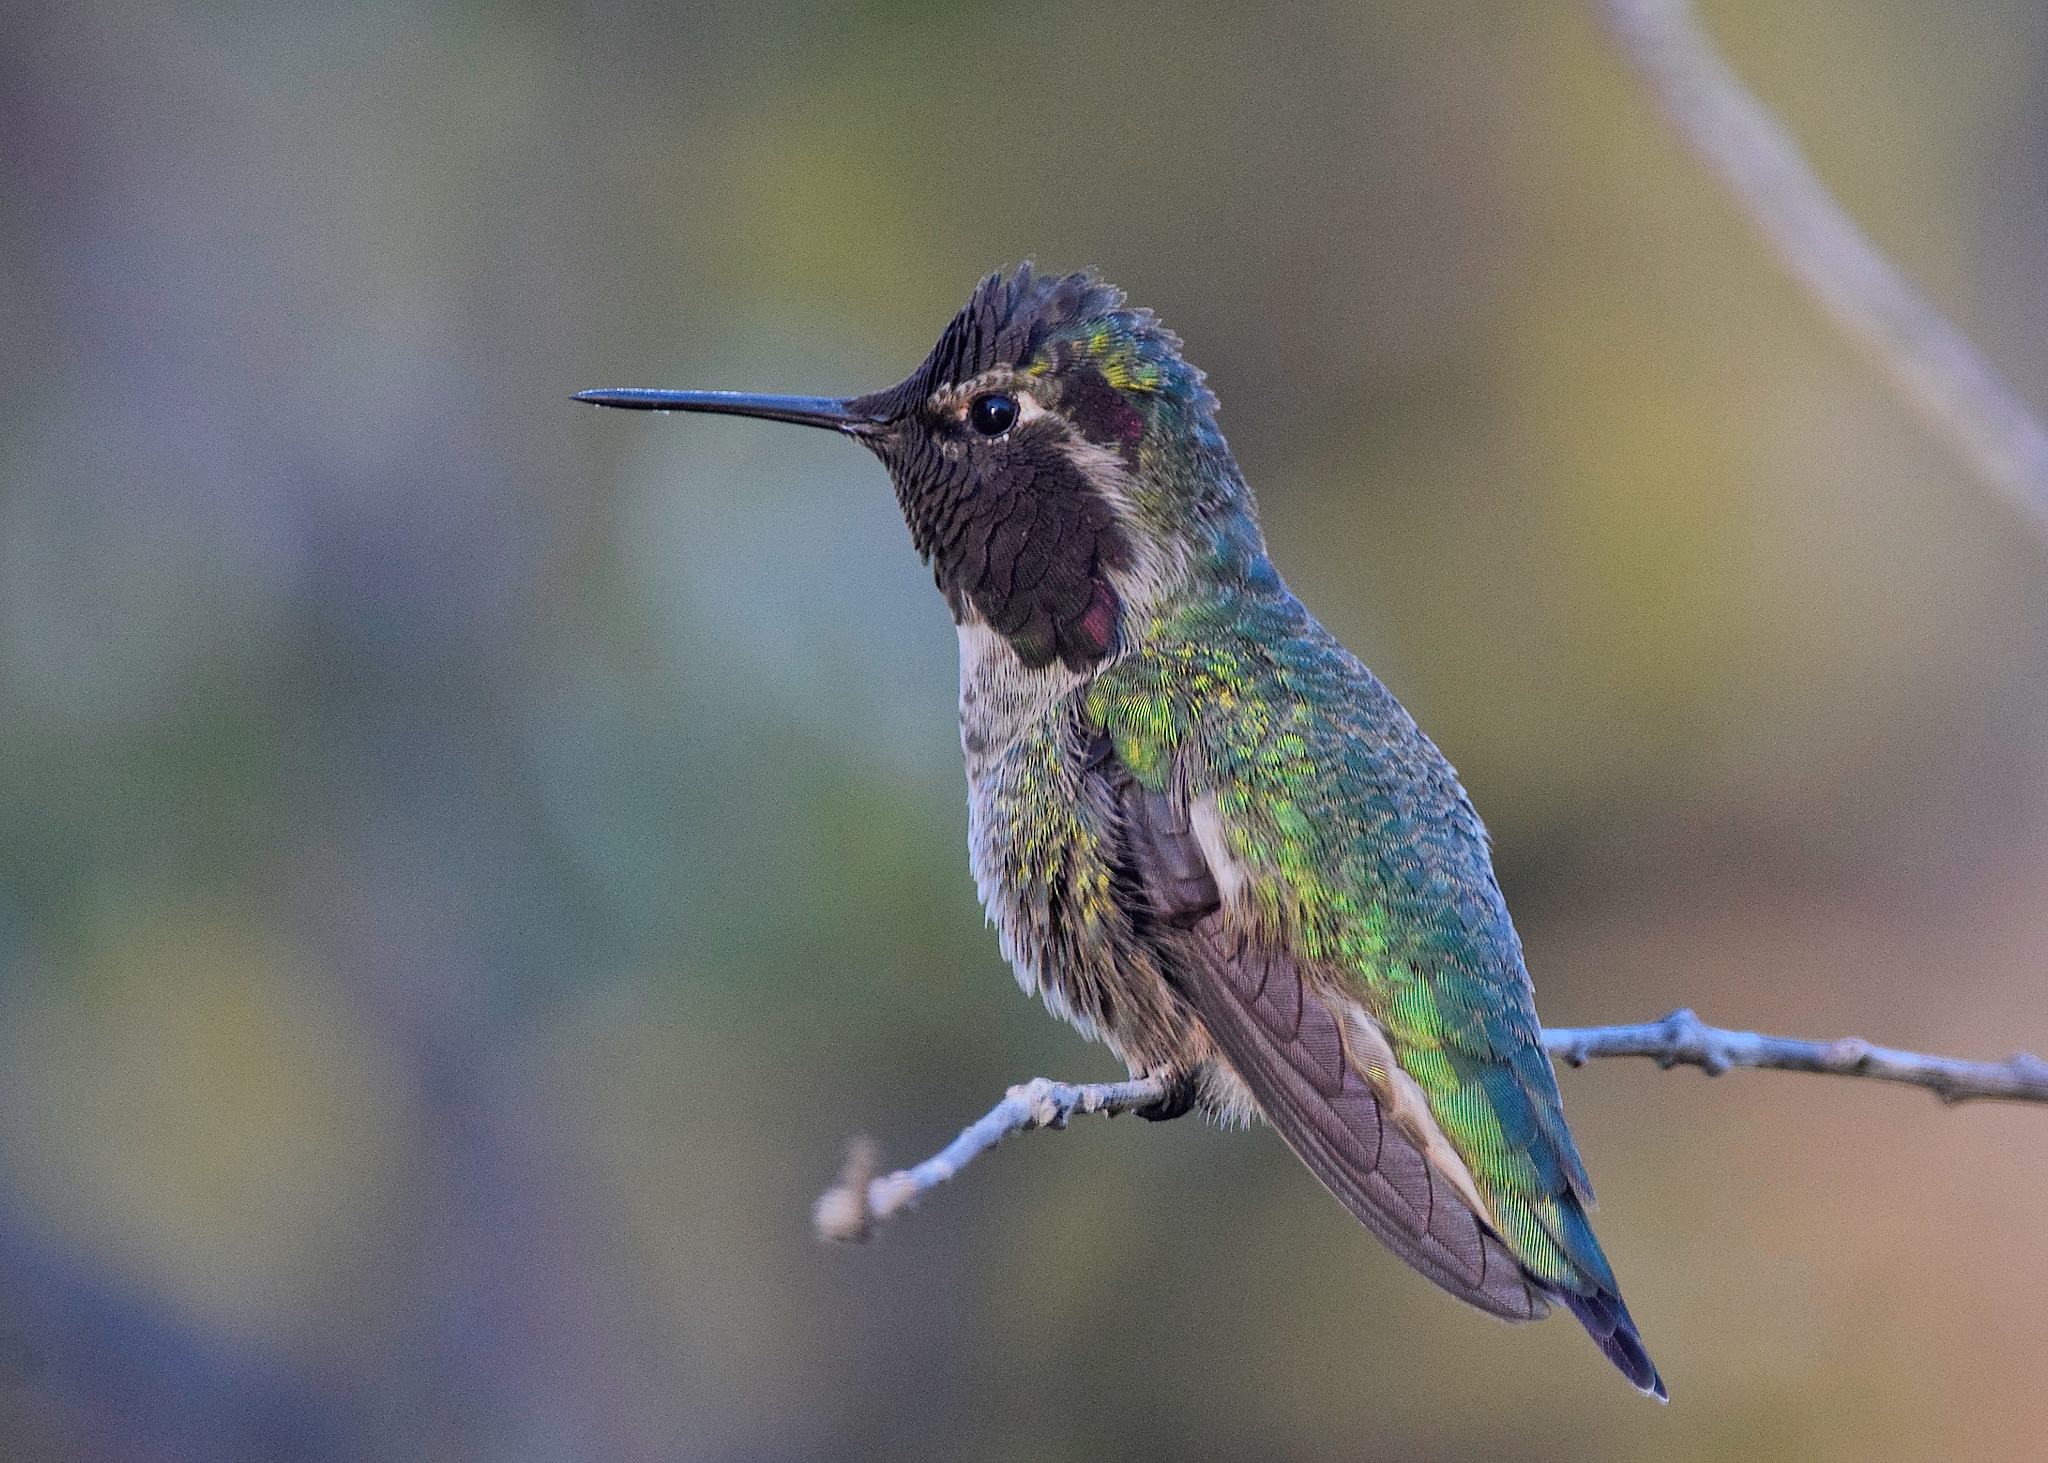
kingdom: Animalia
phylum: Chordata
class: Aves
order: Apodiformes
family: Trochilidae
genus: Calypte
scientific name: Calypte anna
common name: Anna's hummingbird
